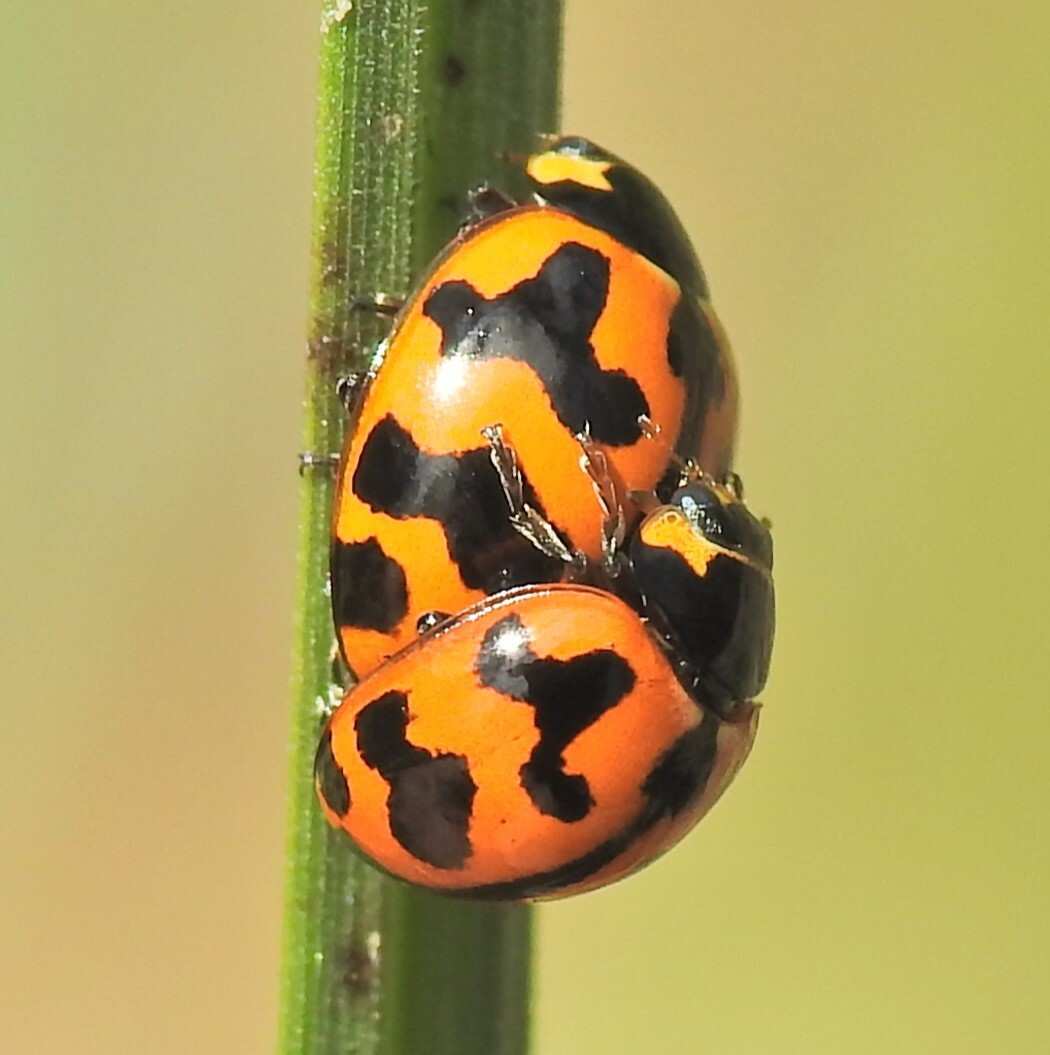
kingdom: Animalia
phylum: Arthropoda
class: Insecta
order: Coleoptera
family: Coccinellidae
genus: Coccinella
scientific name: Coccinella transversalis
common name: Transverse lady beetle
